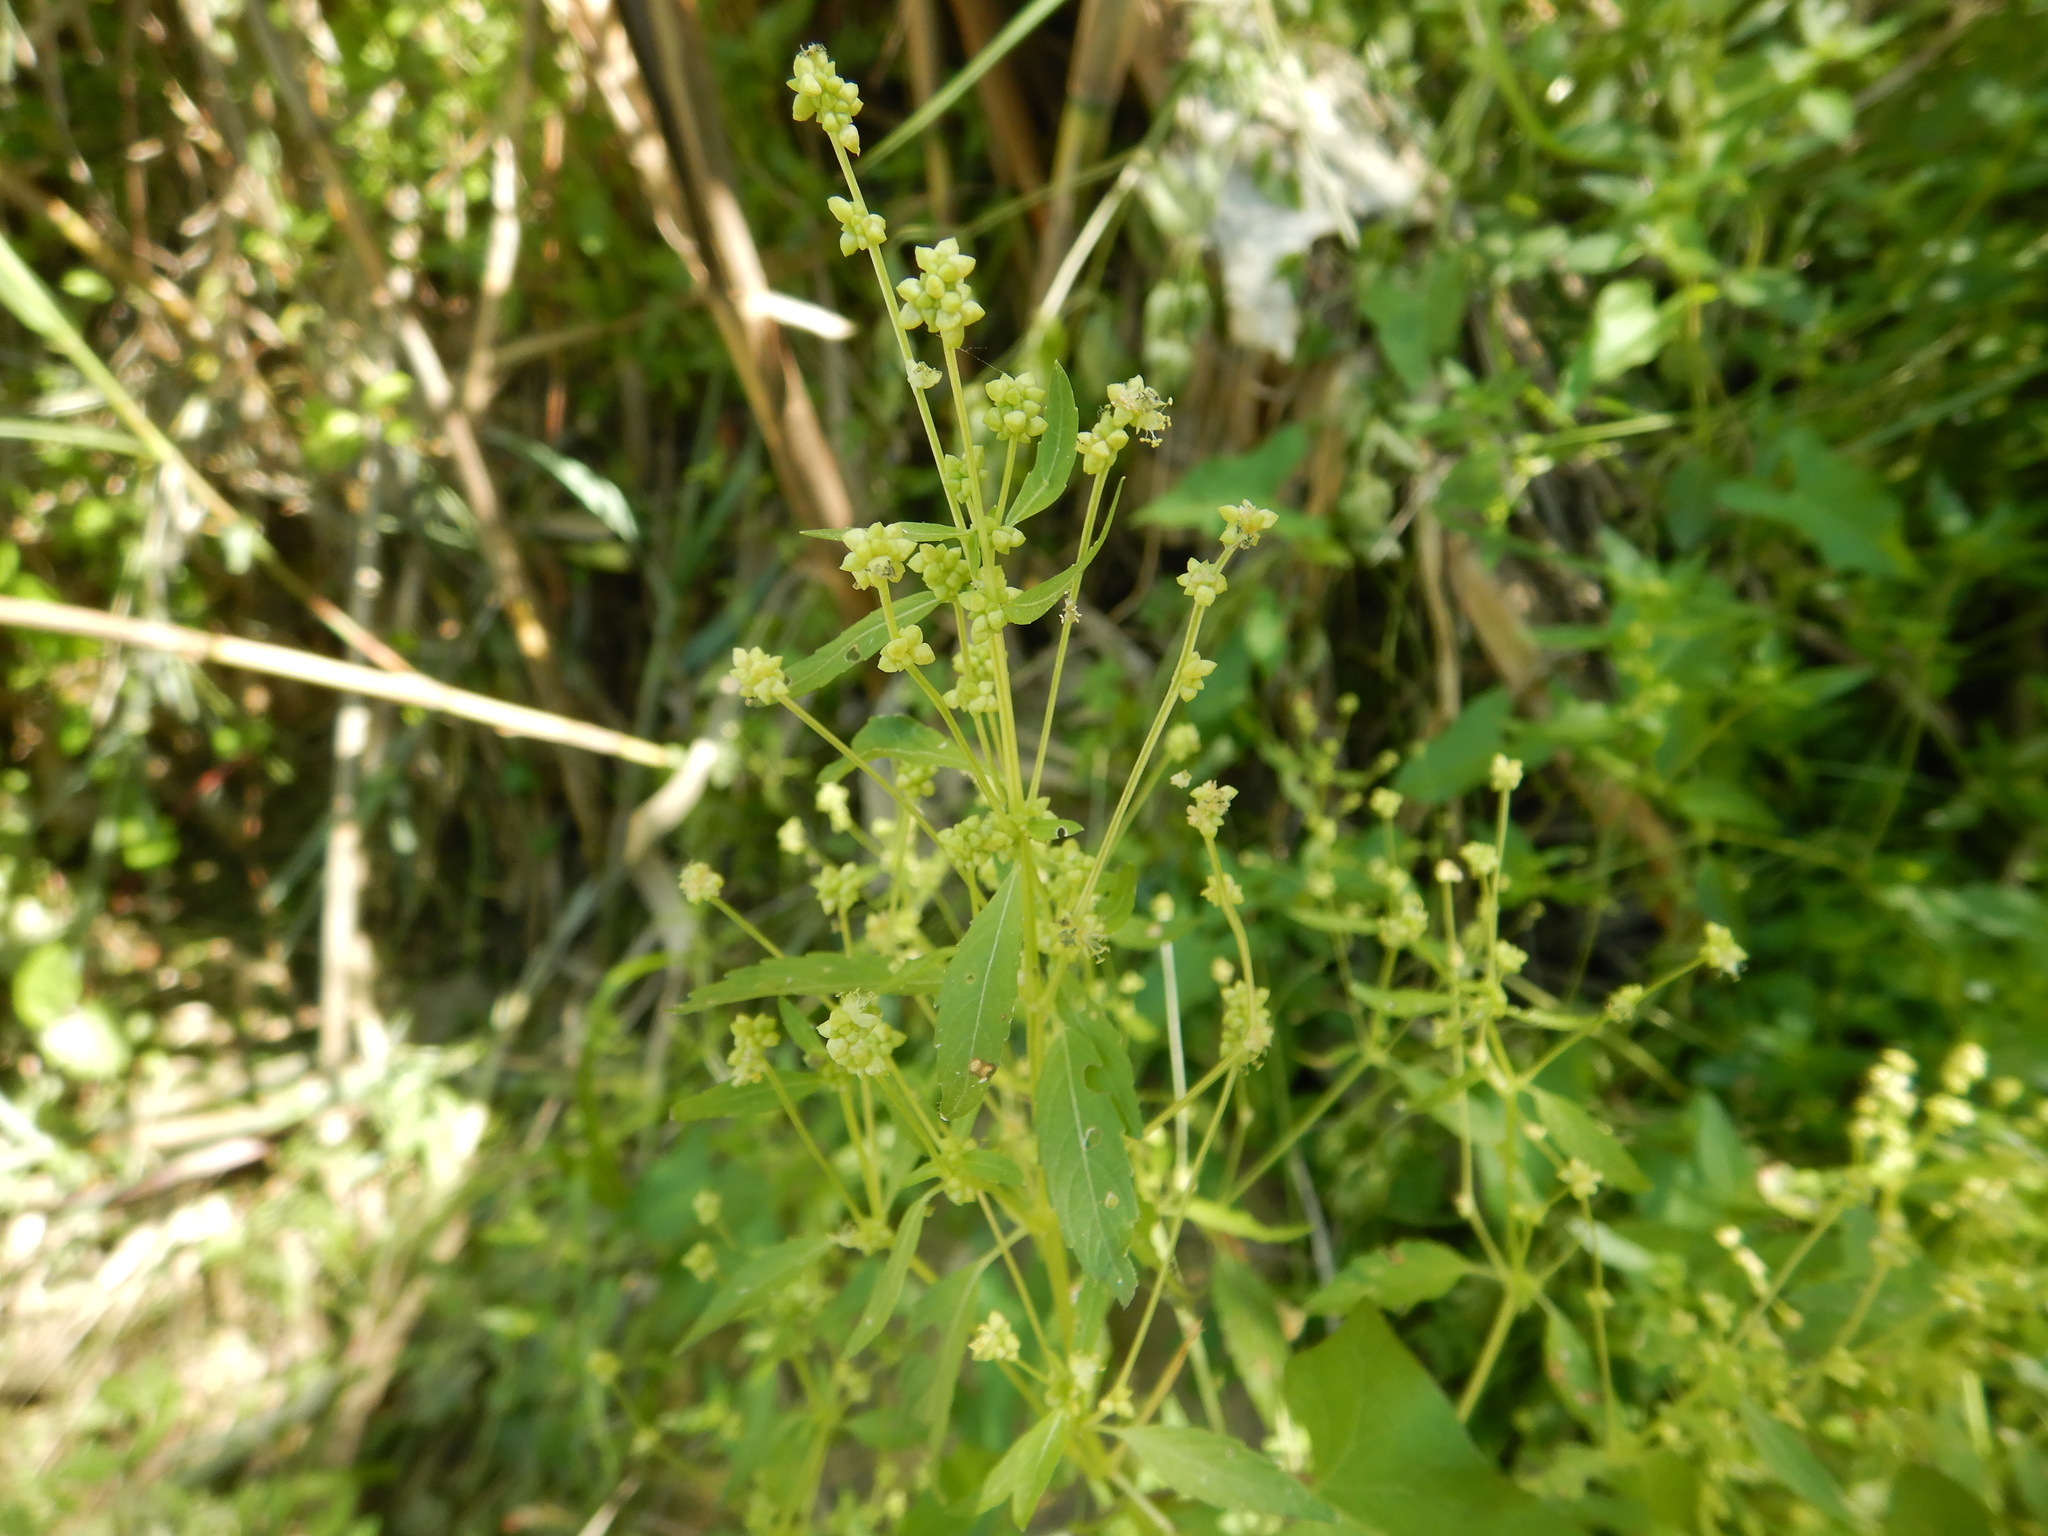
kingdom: Plantae
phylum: Tracheophyta
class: Magnoliopsida
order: Malpighiales
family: Euphorbiaceae
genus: Mercurialis
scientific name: Mercurialis annua
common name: Annual mercury
